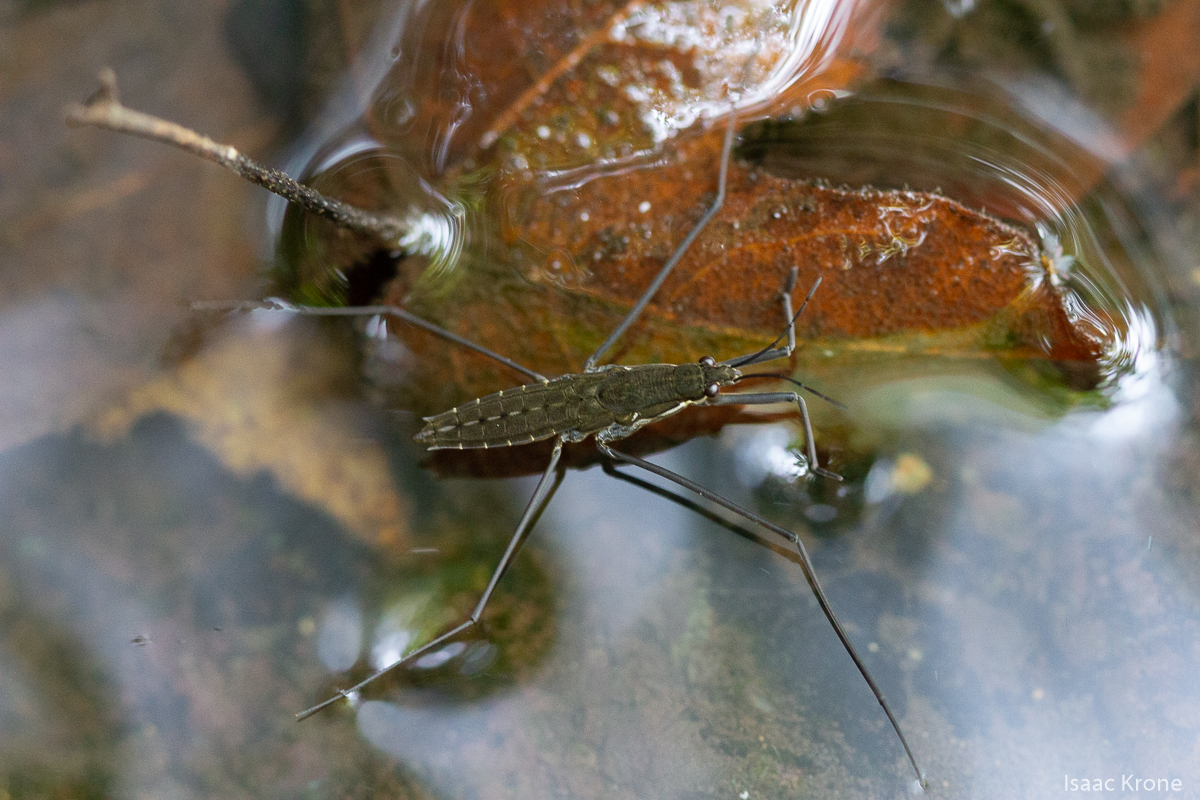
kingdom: Animalia
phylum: Arthropoda
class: Insecta
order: Hemiptera
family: Gerridae
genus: Aquarius
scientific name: Aquarius remigis
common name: Common water strider
